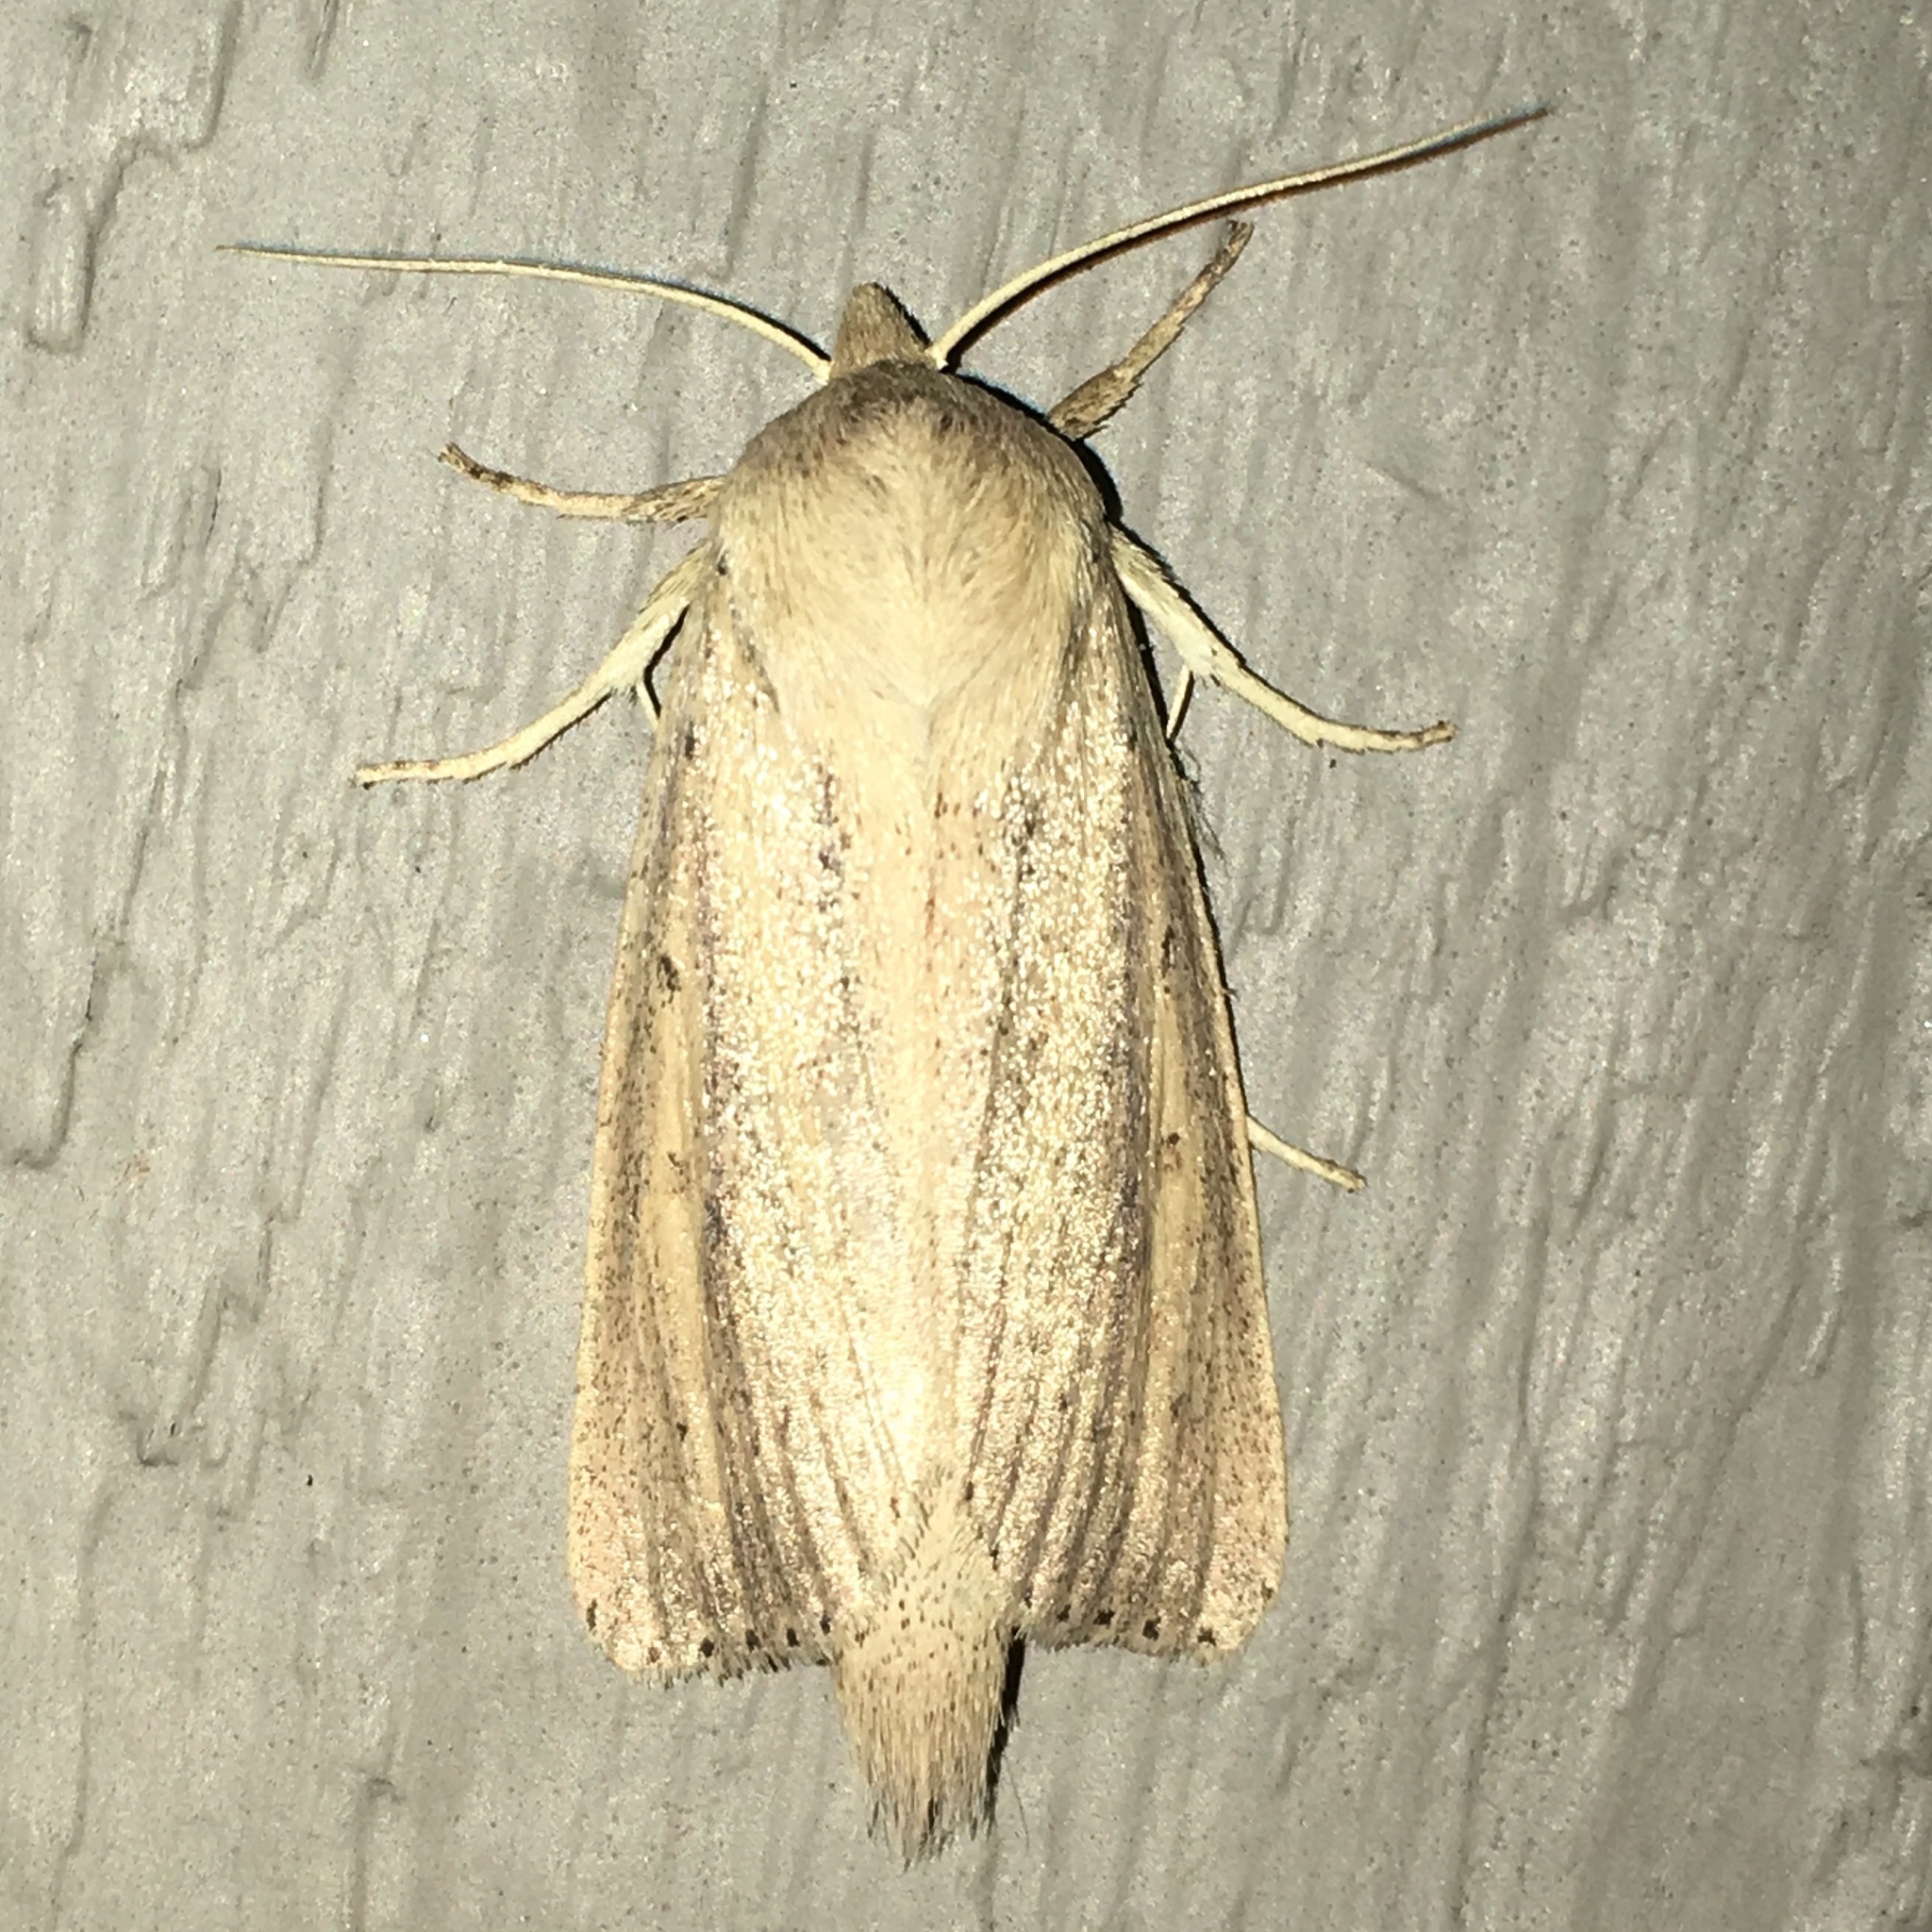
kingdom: Animalia
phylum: Arthropoda
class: Insecta
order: Lepidoptera
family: Noctuidae
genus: Globia
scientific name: Globia oblonga
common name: Oblong sedge borer moth
